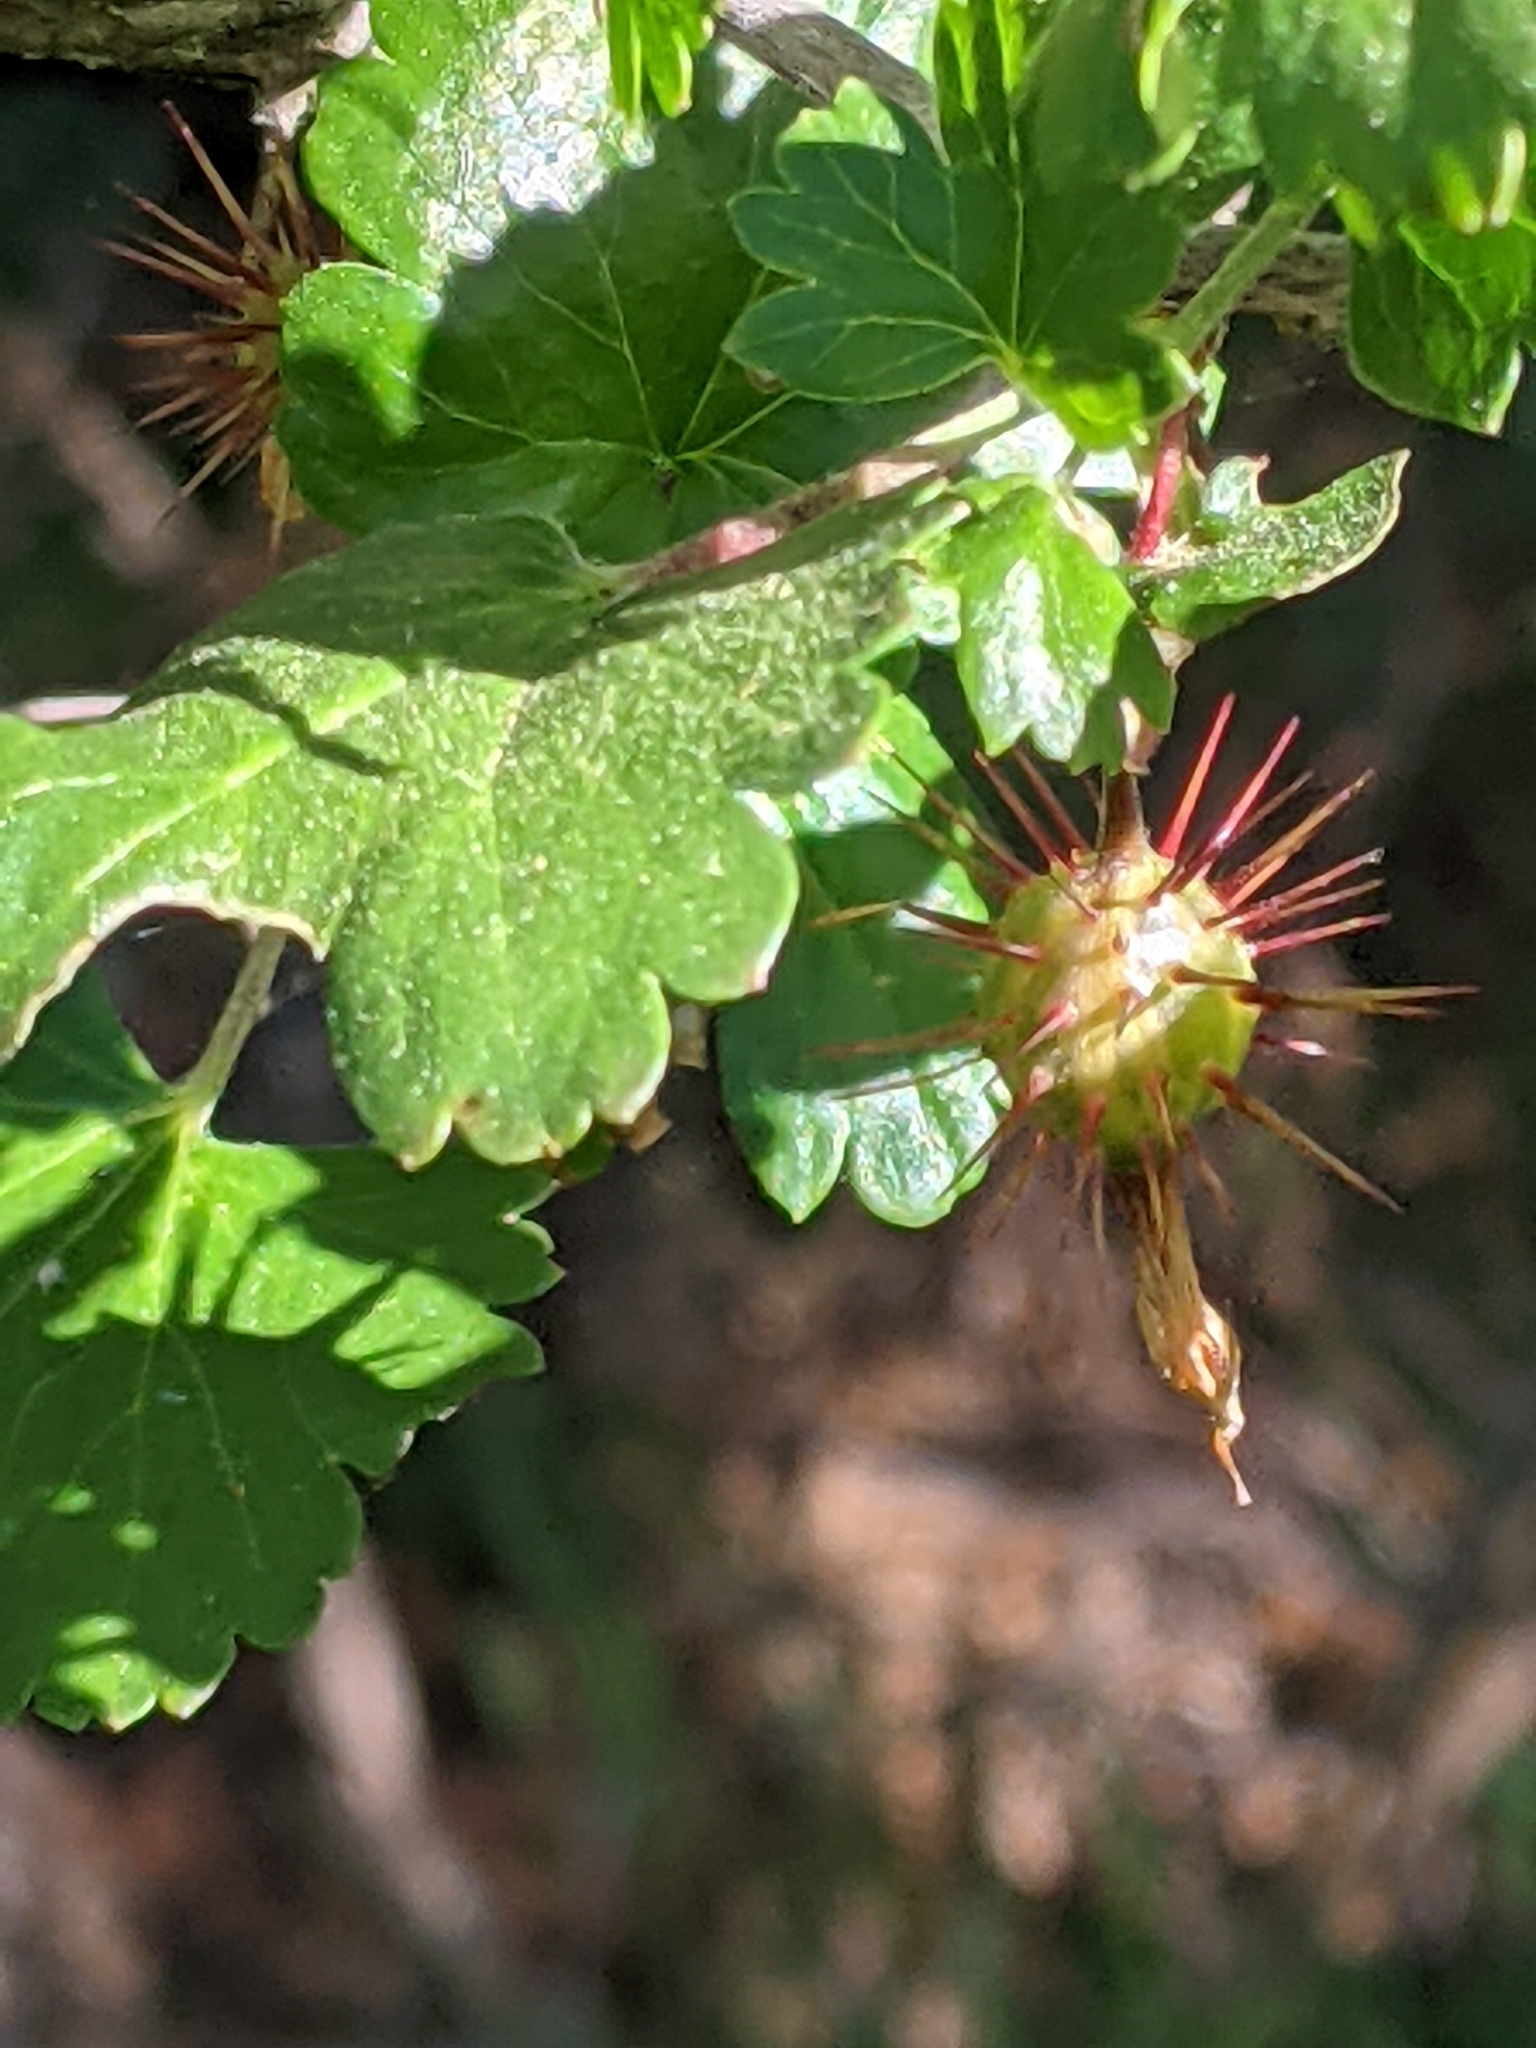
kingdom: Plantae
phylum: Tracheophyta
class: Magnoliopsida
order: Saxifragales
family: Grossulariaceae
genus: Ribes
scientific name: Ribes californicum
